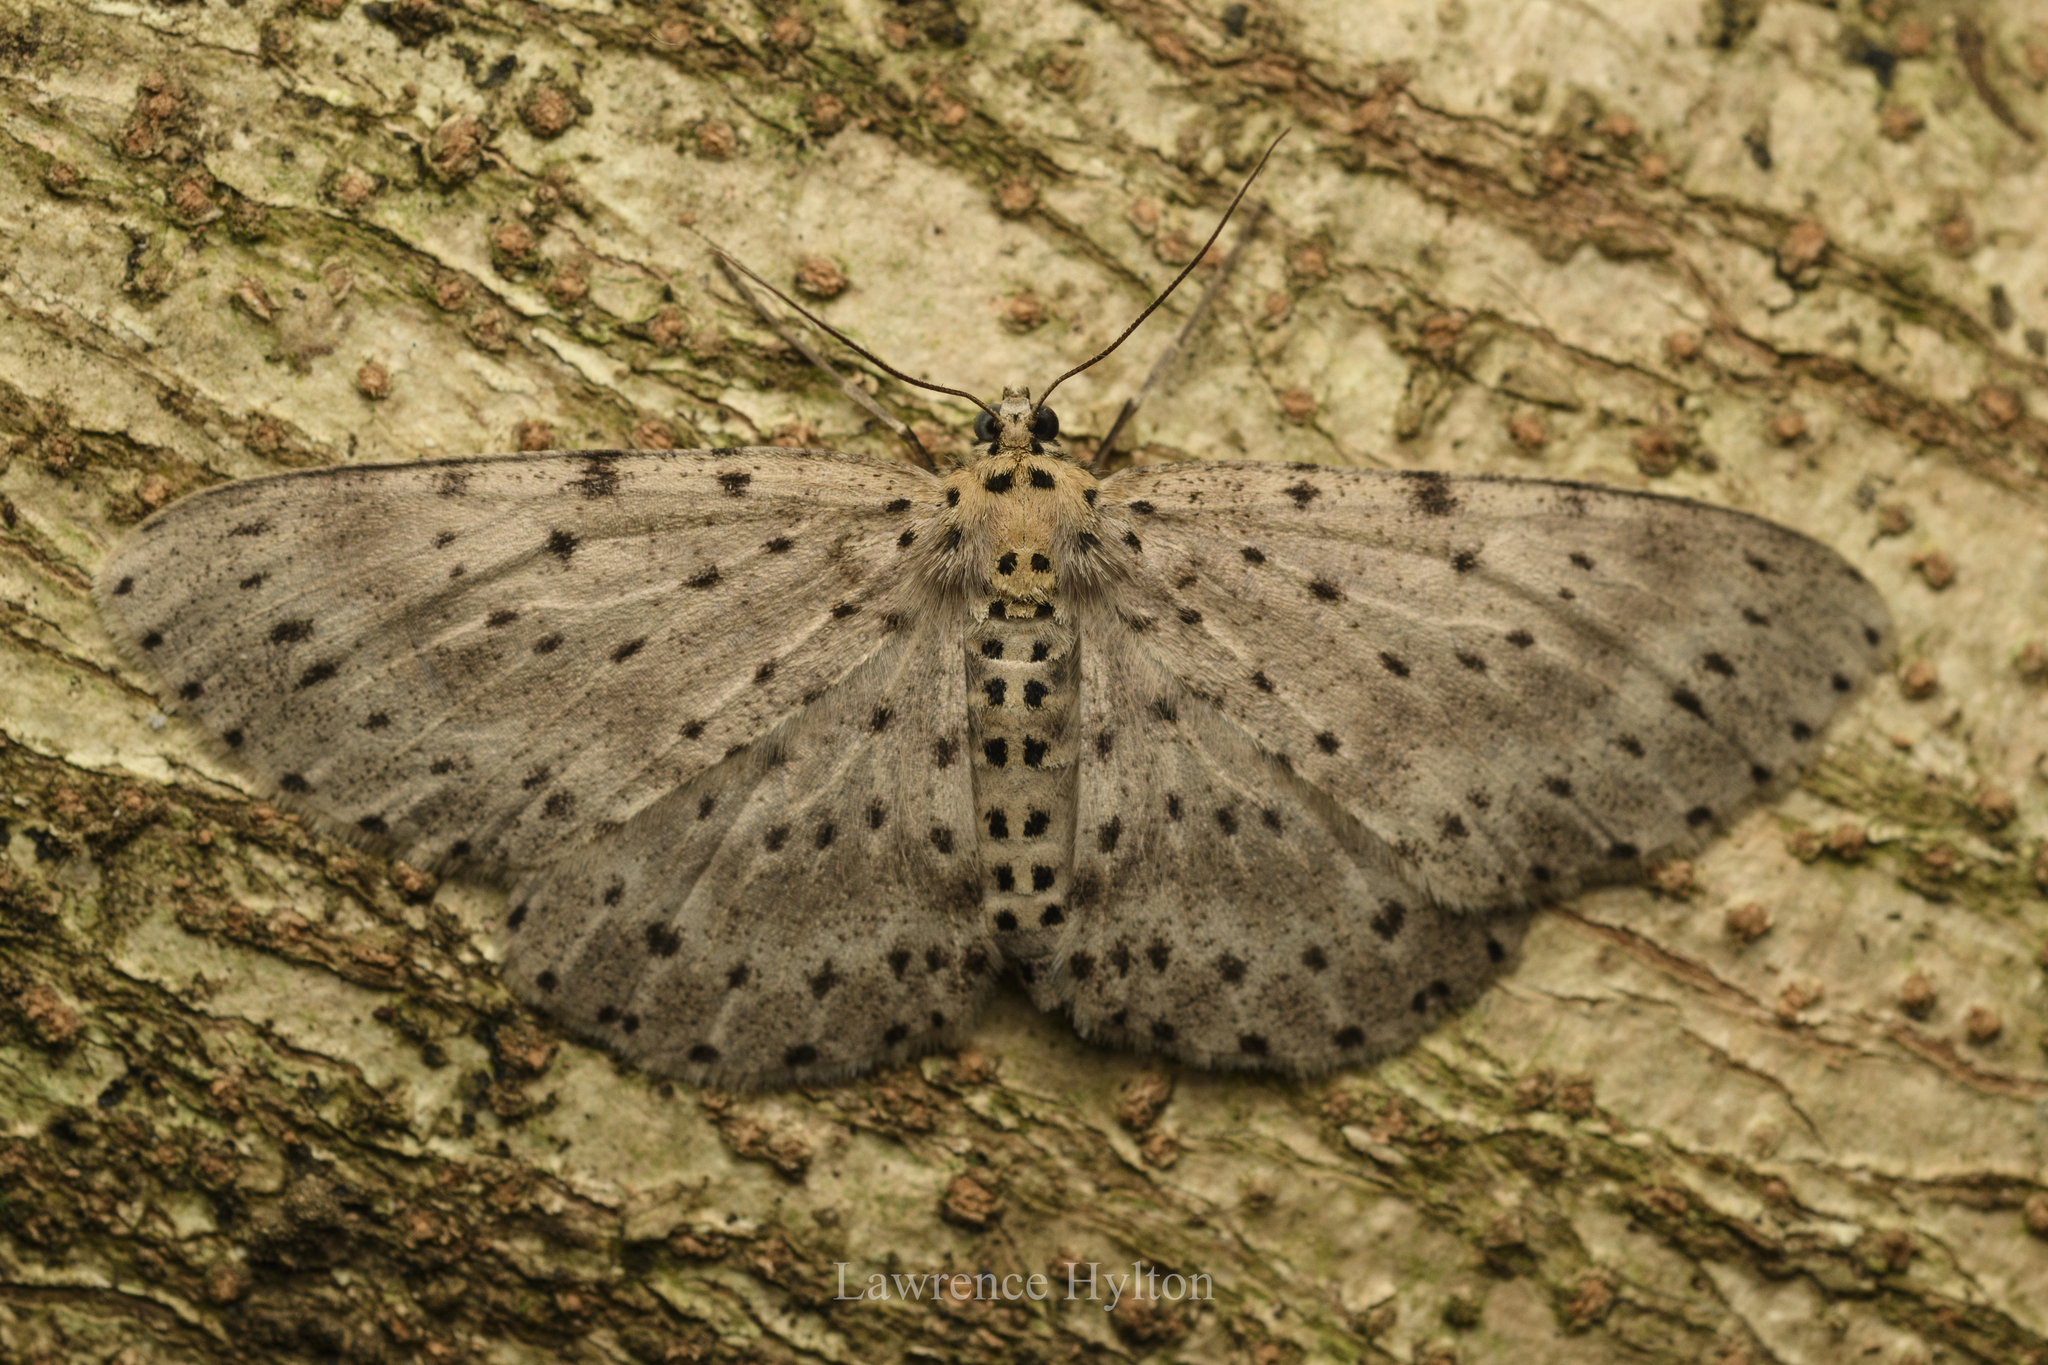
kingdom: Animalia
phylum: Arthropoda
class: Insecta
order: Lepidoptera
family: Geometridae
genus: Percnia
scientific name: Percnia fumidaria
